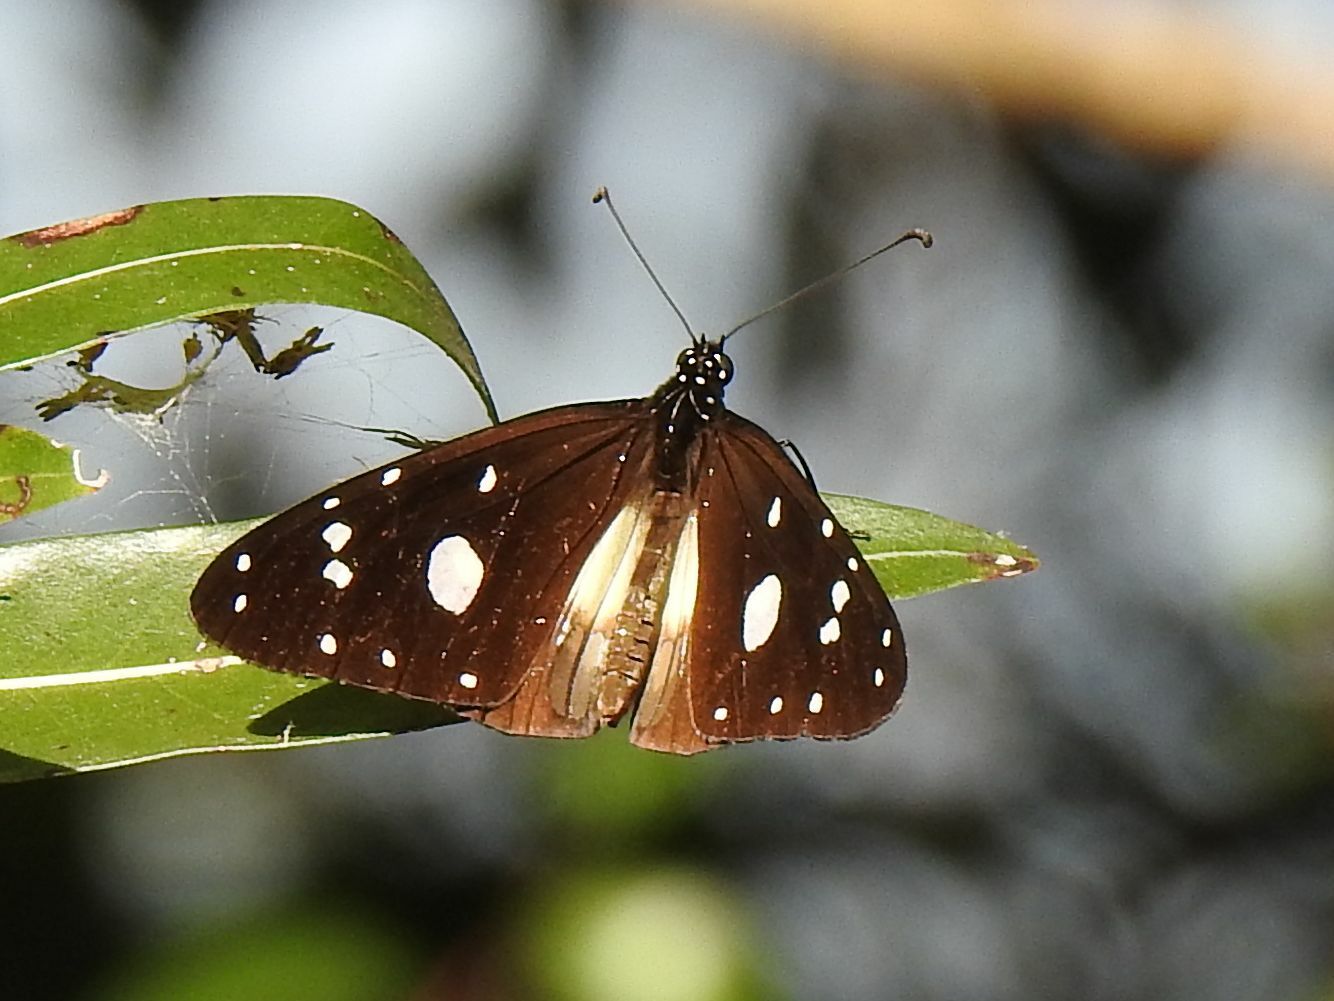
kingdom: Animalia
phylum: Arthropoda
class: Insecta
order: Lepidoptera
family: Nymphalidae
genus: Amauris
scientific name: Amauris albimaculata
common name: Layman
